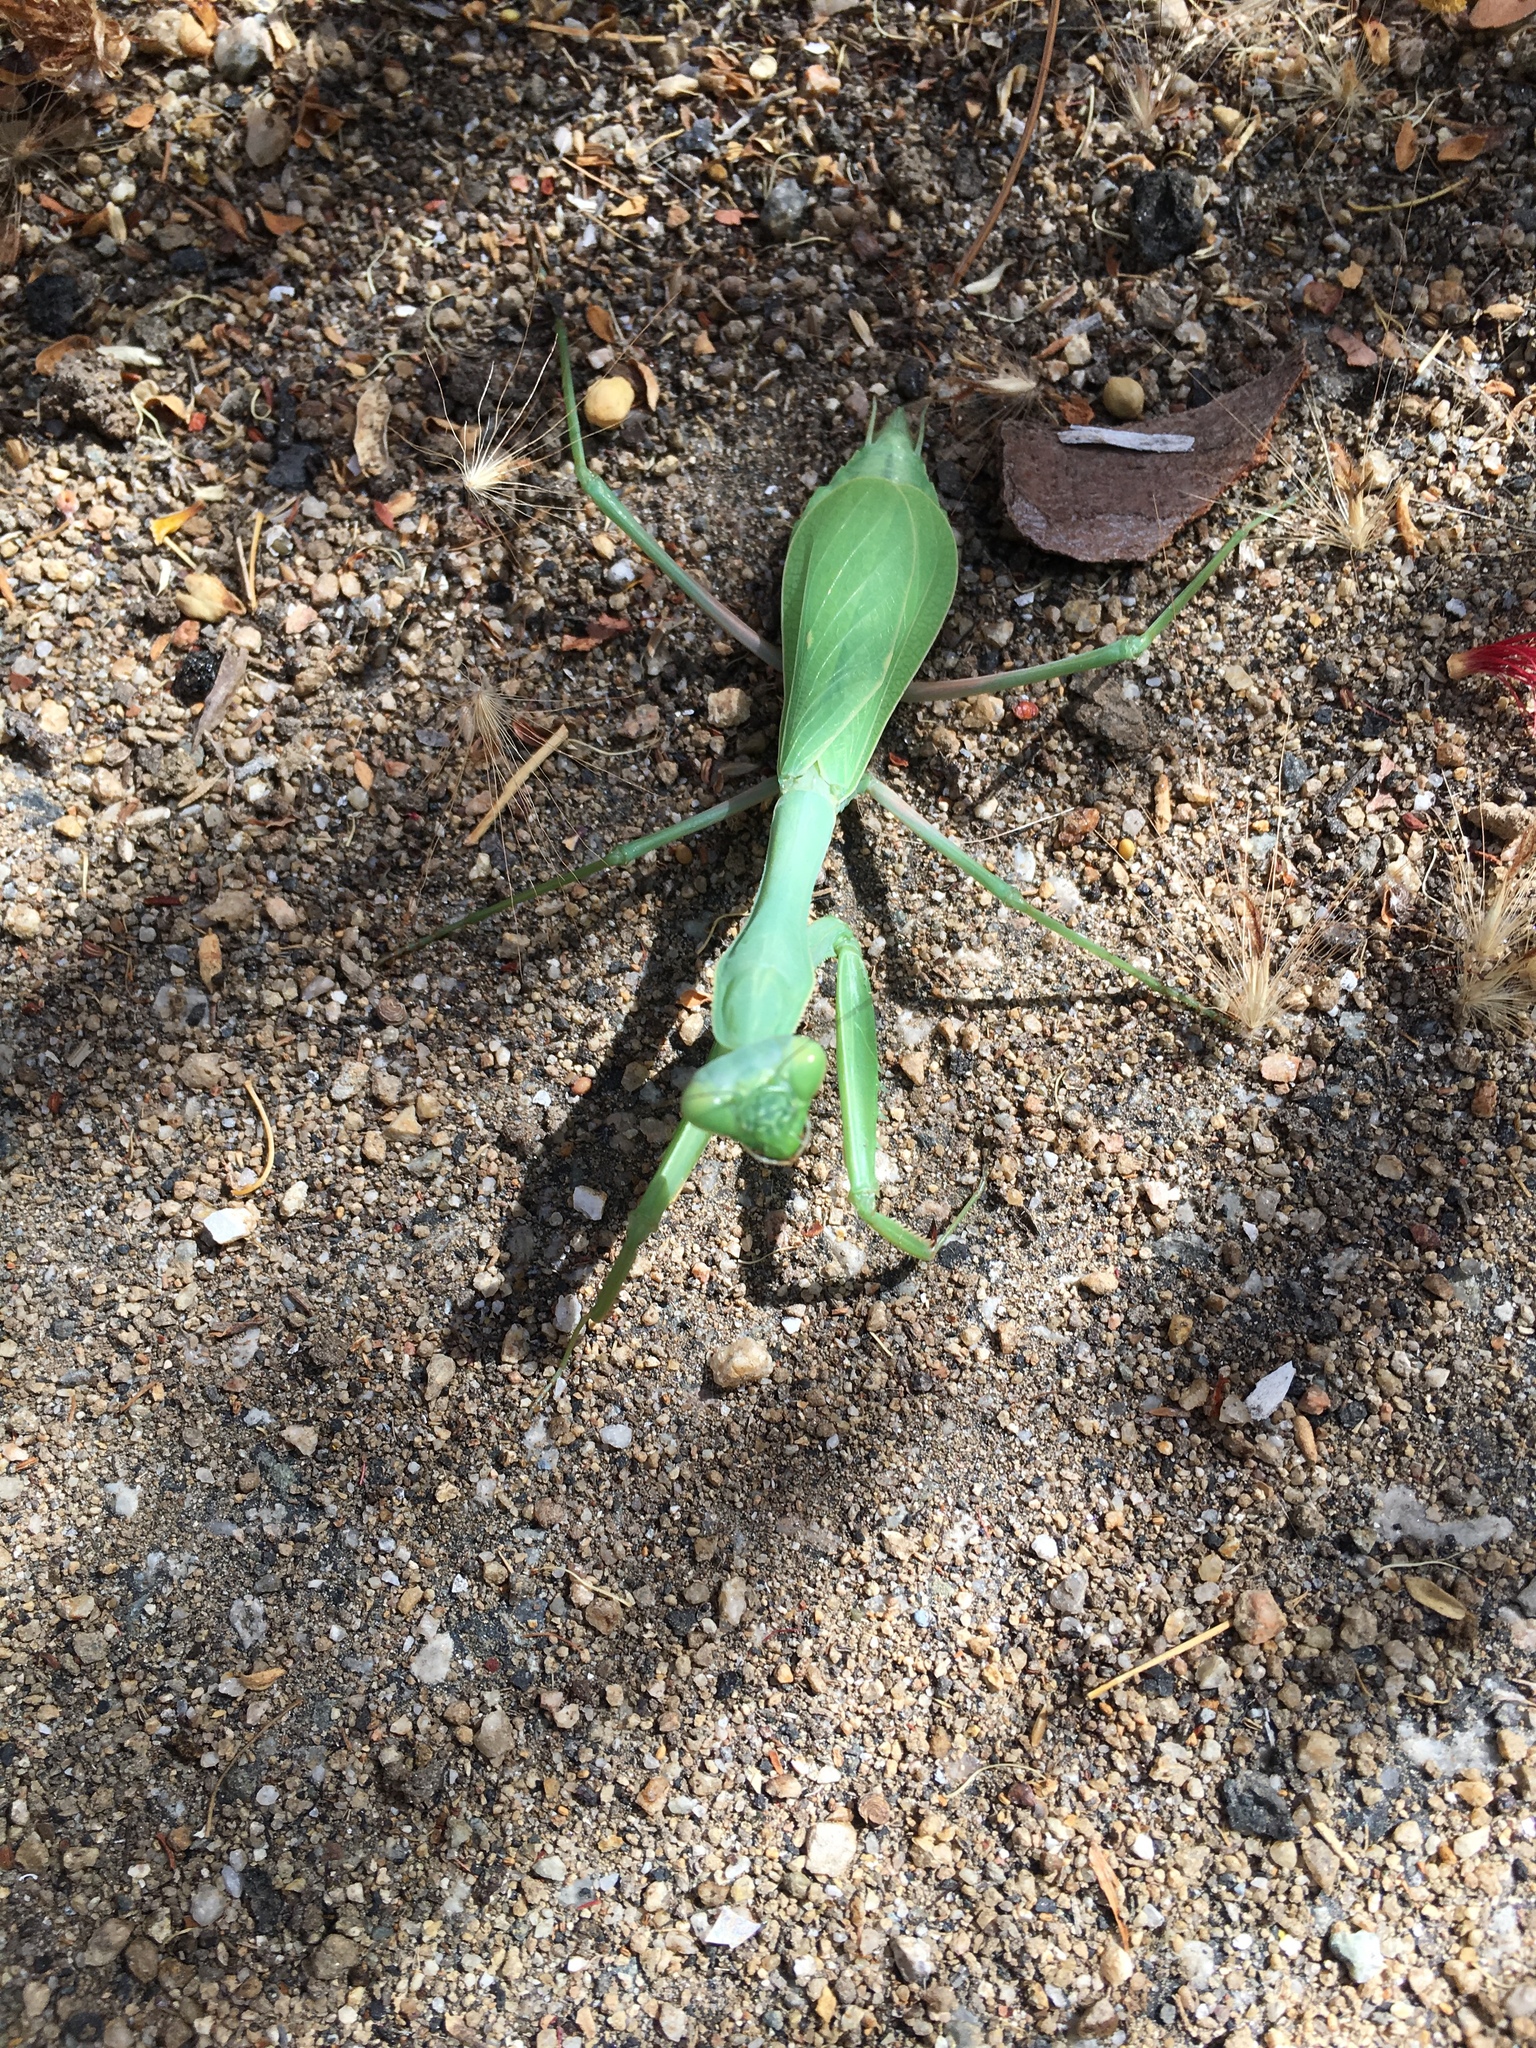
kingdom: Animalia
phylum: Arthropoda
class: Insecta
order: Mantodea
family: Mantidae
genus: Stagmomantis
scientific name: Stagmomantis limbata
